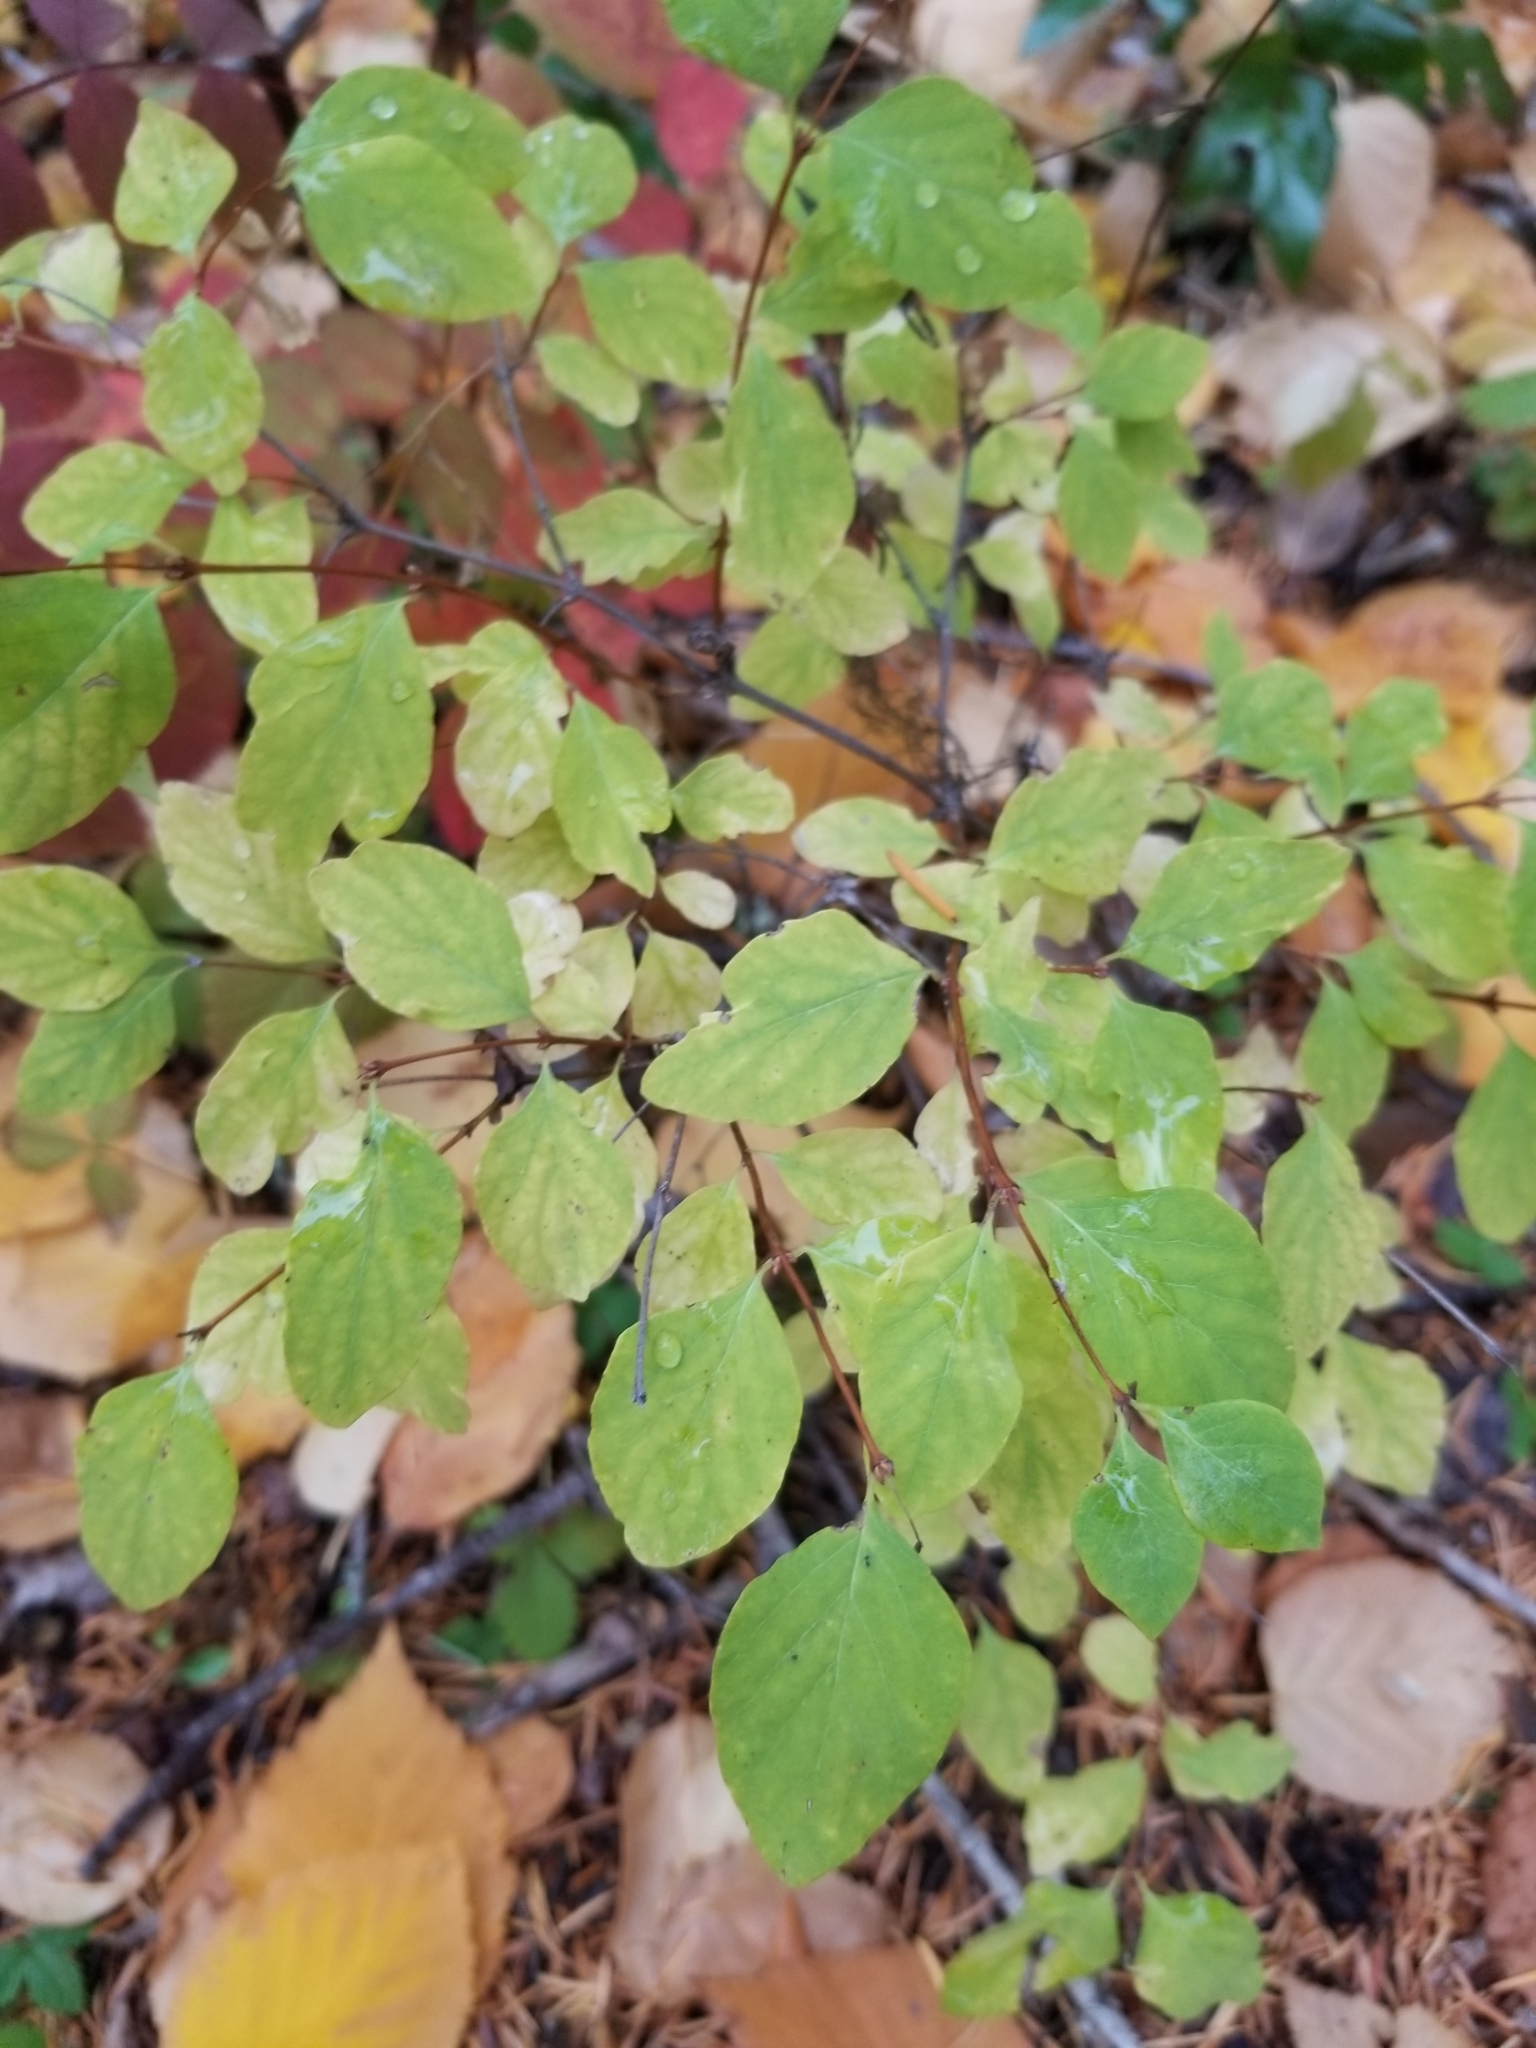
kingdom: Plantae
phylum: Tracheophyta
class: Magnoliopsida
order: Dipsacales
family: Caprifoliaceae
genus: Symphoricarpos
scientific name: Symphoricarpos albus
